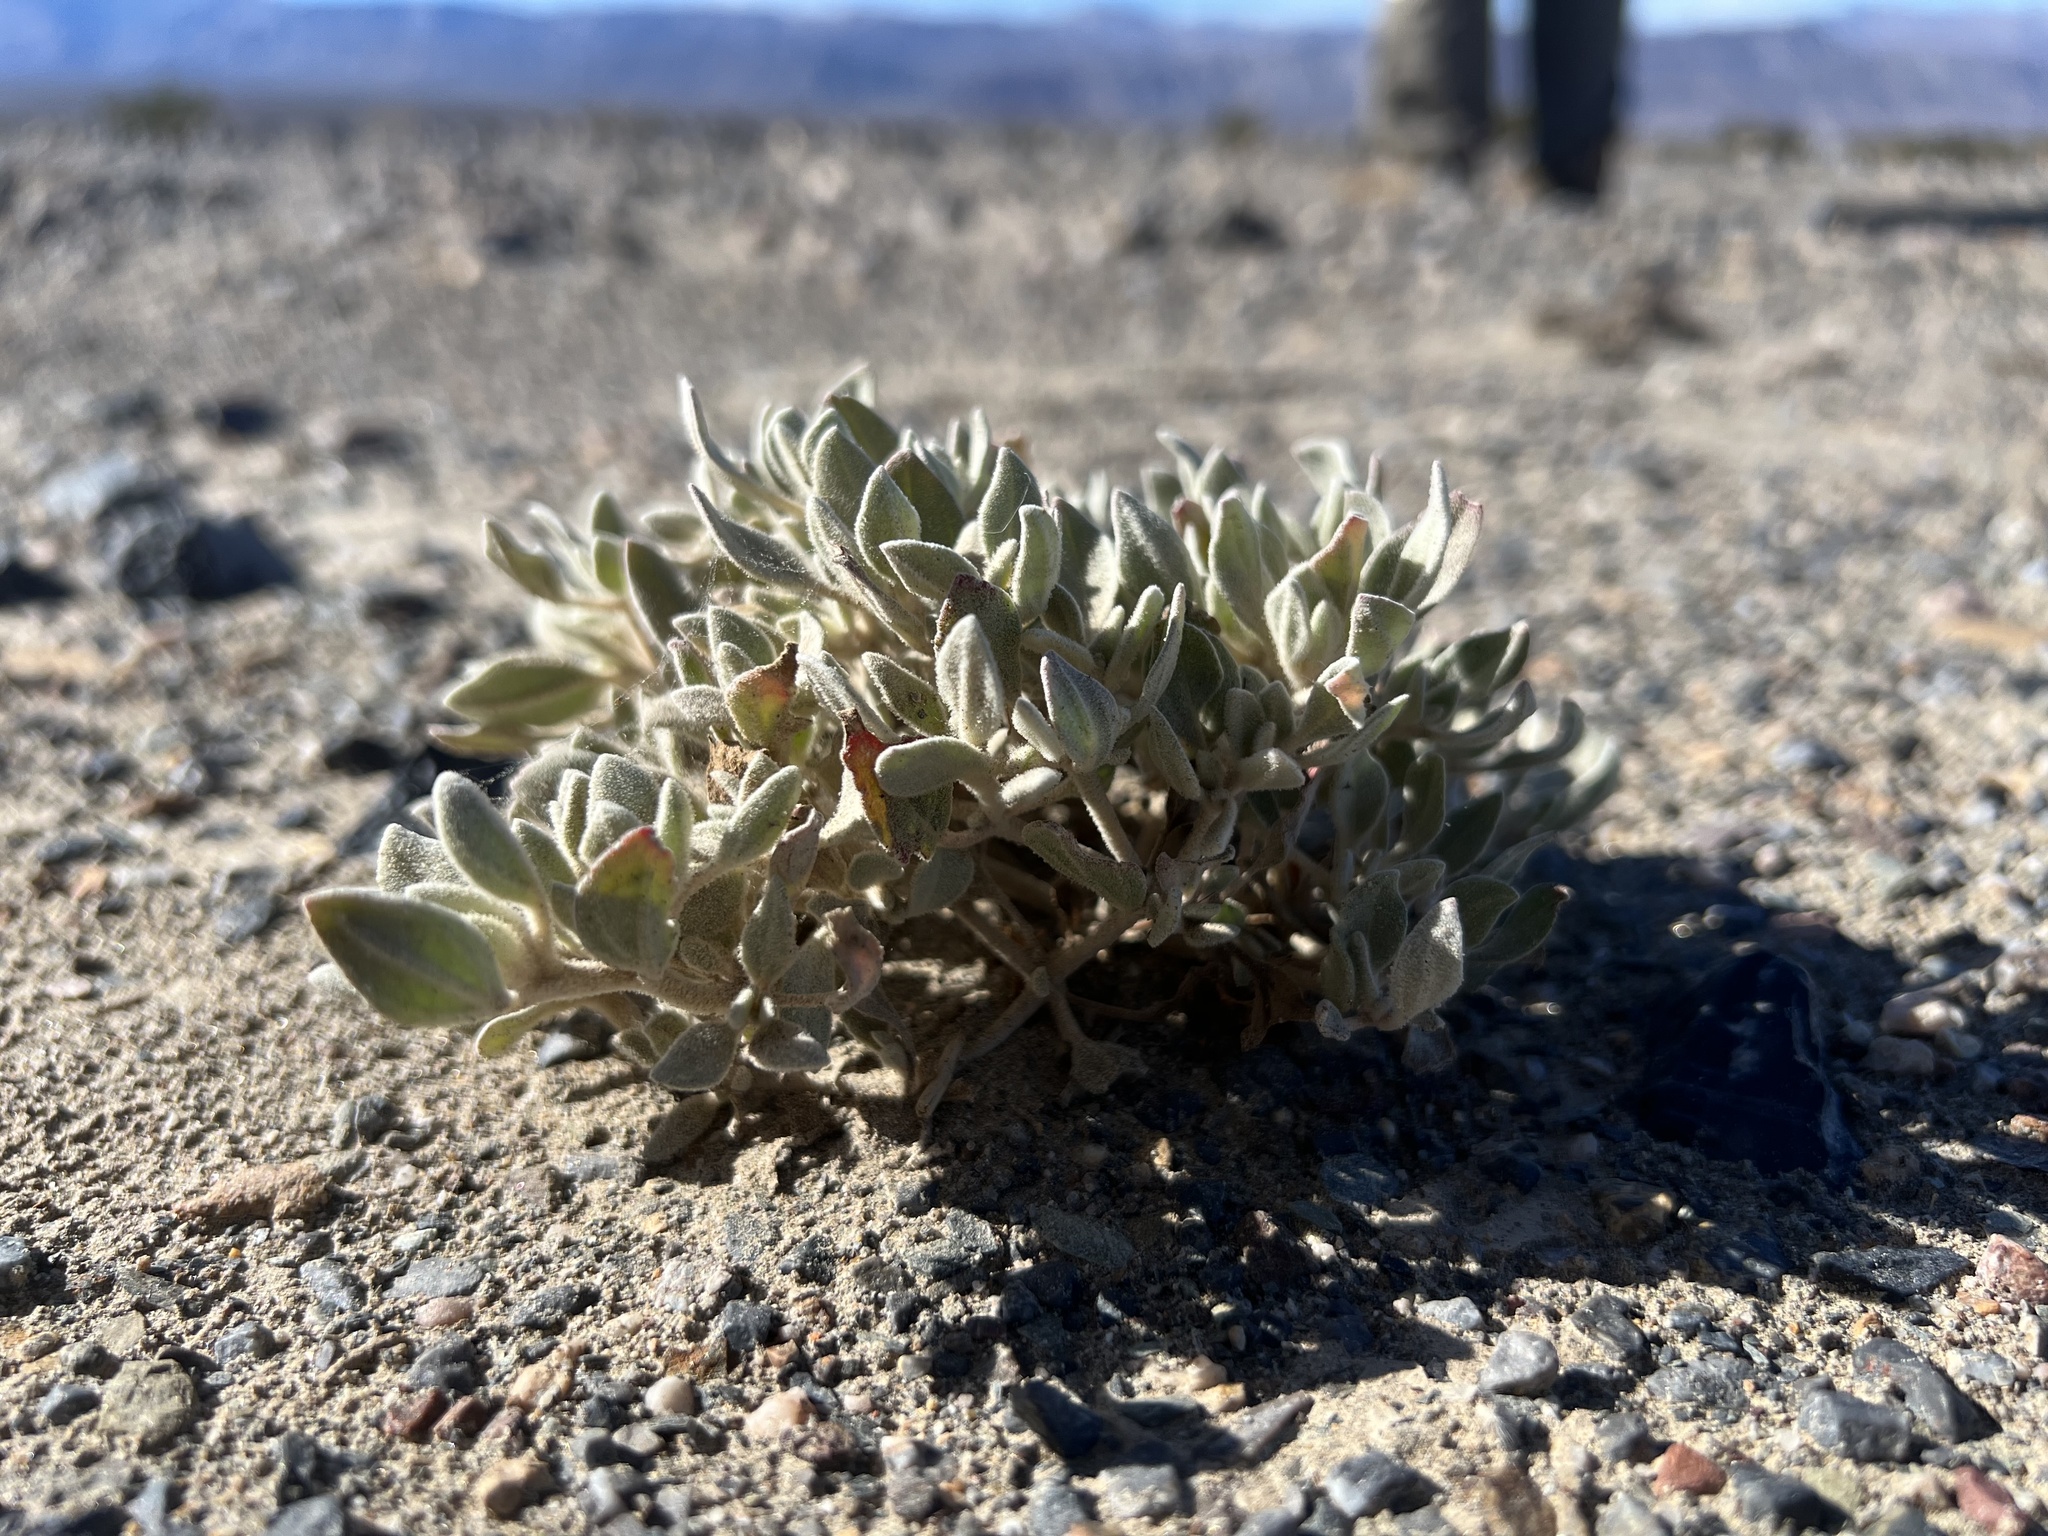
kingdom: Plantae
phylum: Tracheophyta
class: Magnoliopsida
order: Caryophyllales
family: Amaranthaceae
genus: Tidestromia
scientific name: Tidestromia suffruticosa
